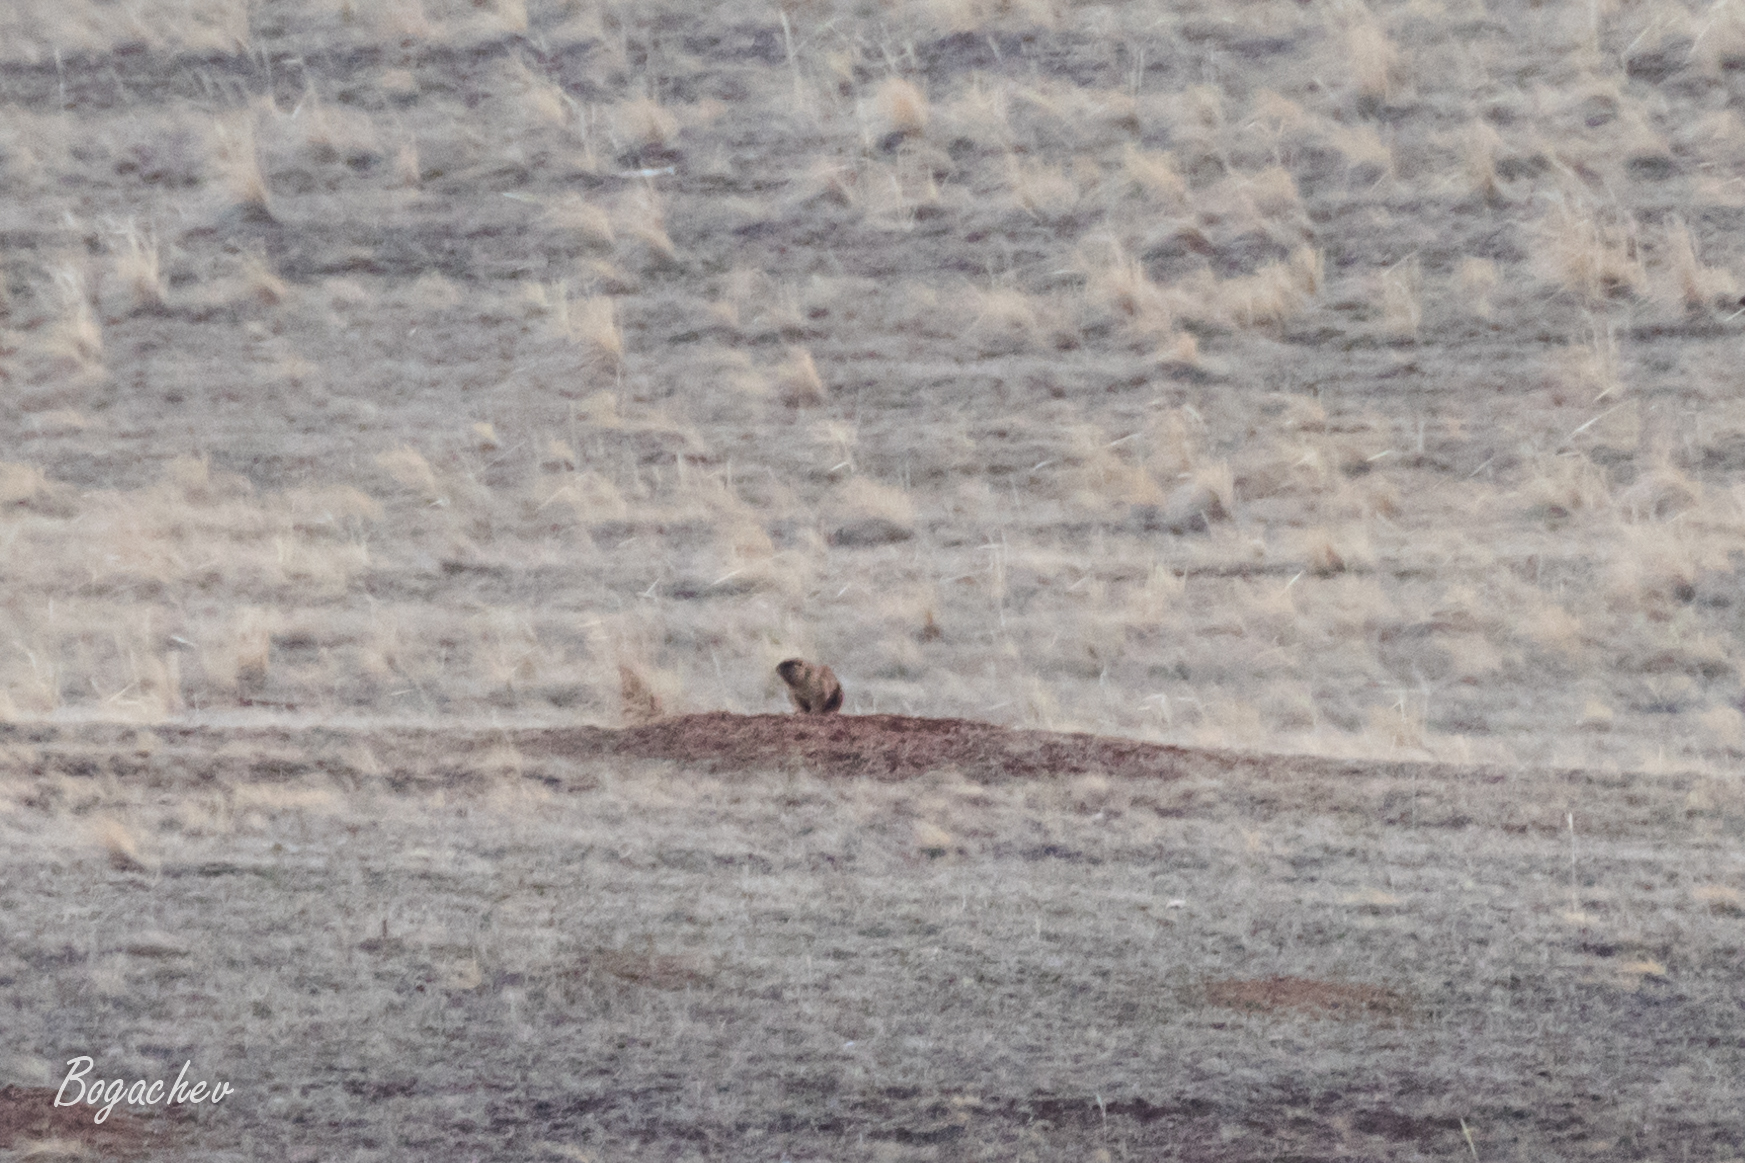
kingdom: Animalia
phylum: Chordata
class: Mammalia
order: Rodentia
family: Sciuridae
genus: Marmota
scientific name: Marmota bobak
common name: Bobak marmot
